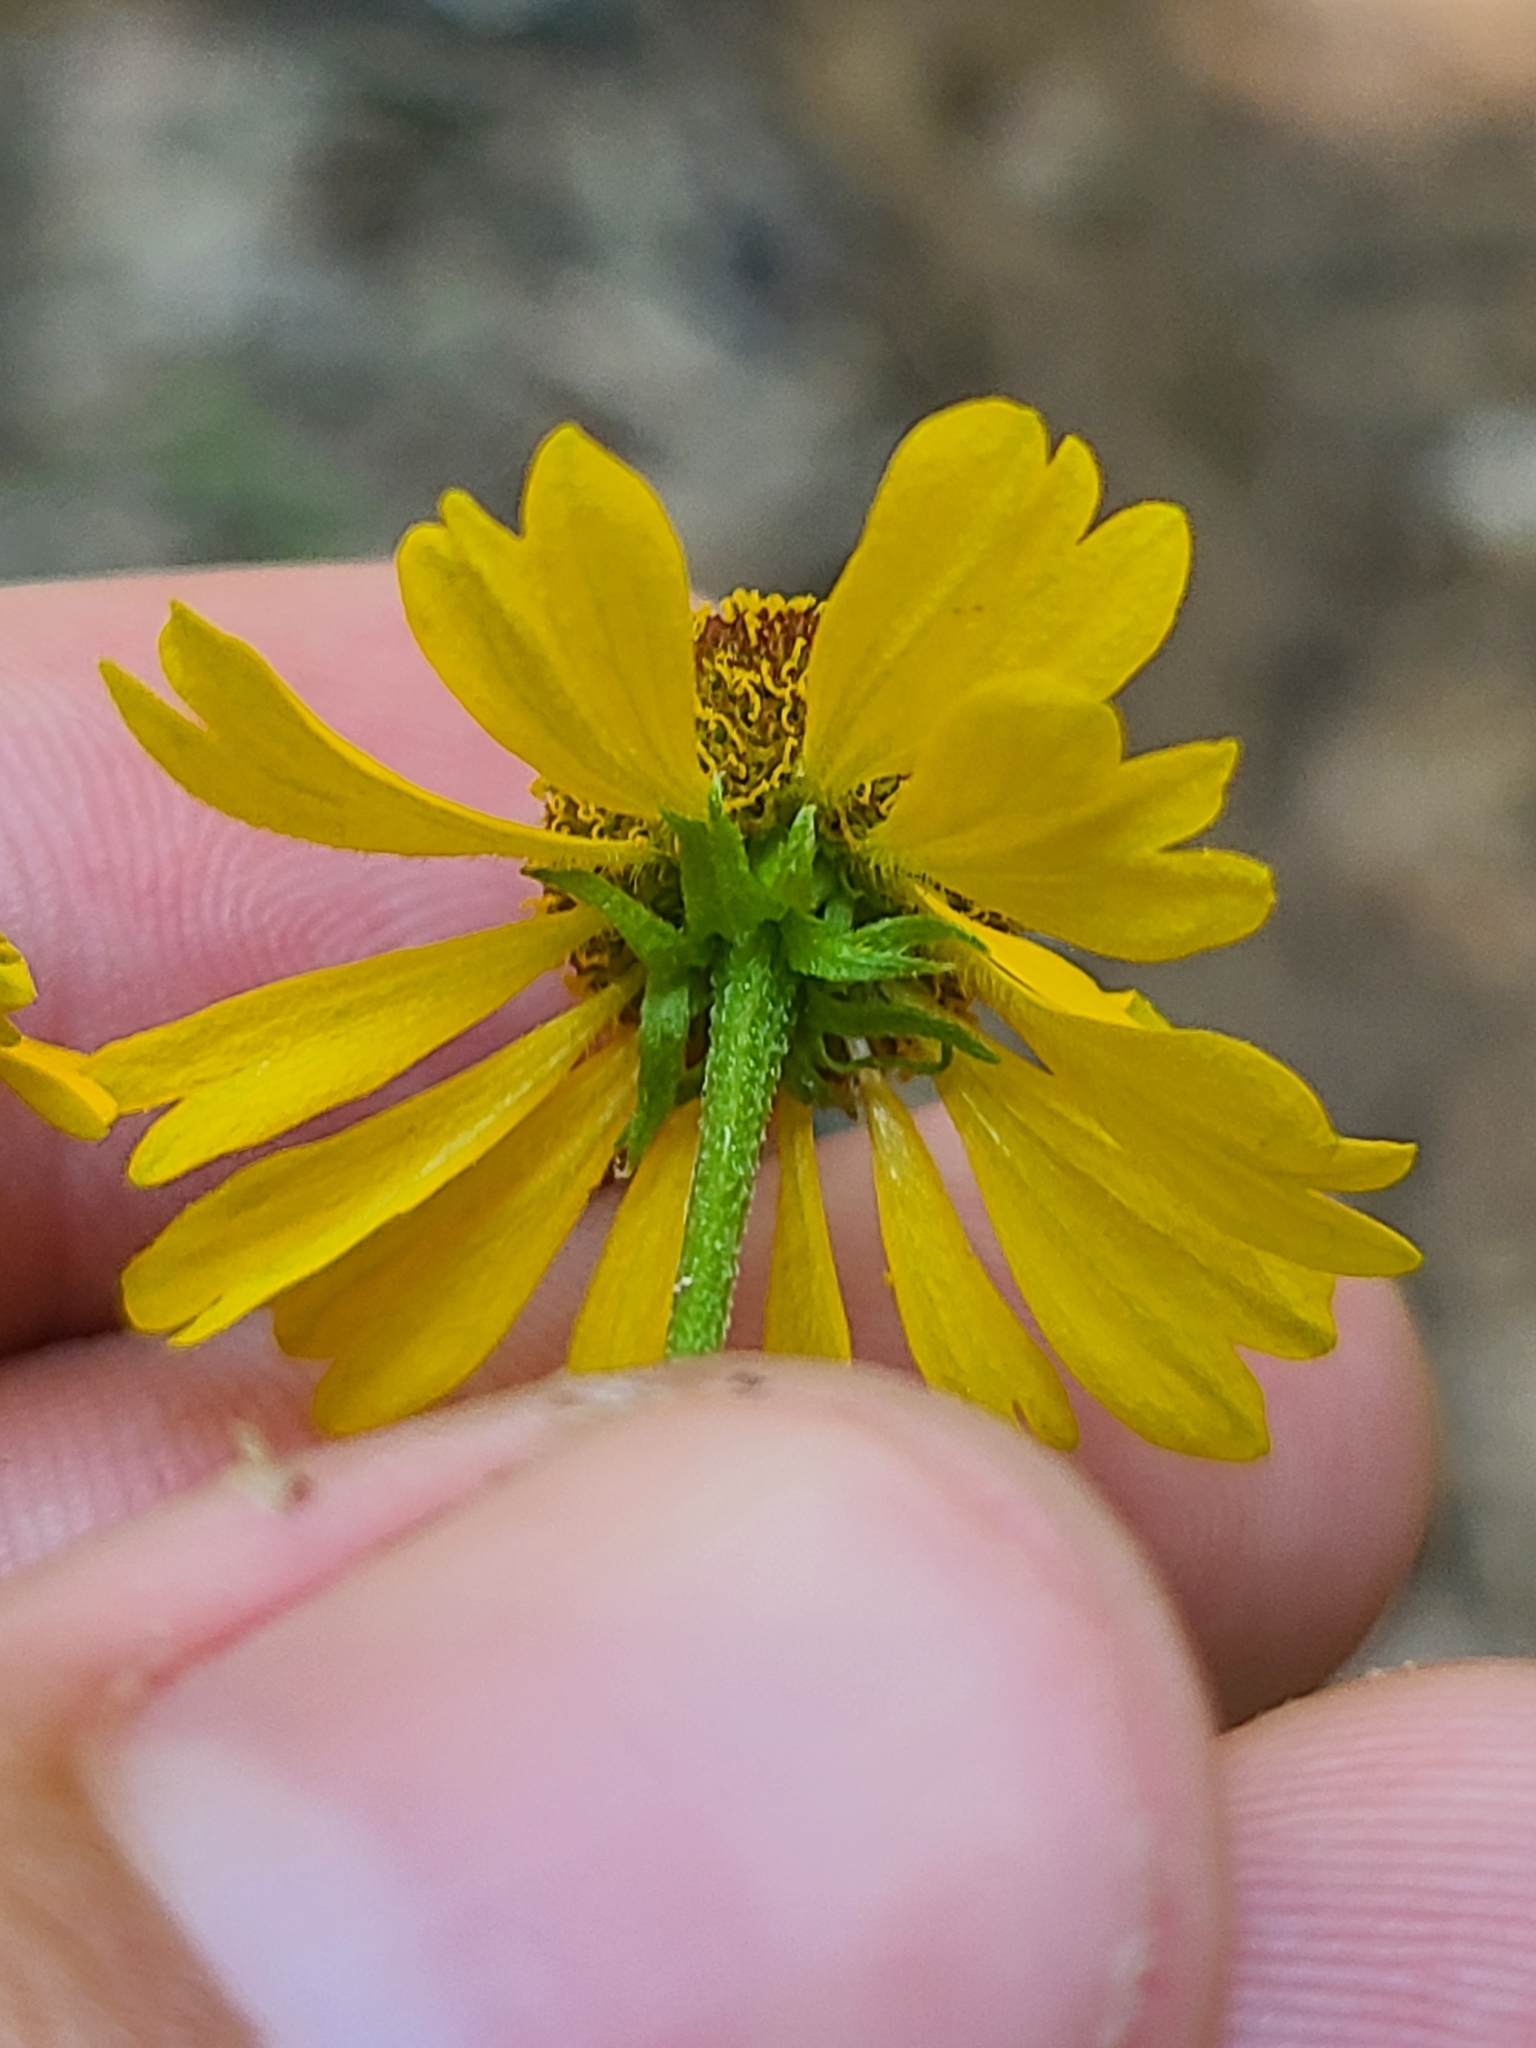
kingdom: Plantae
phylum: Tracheophyta
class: Magnoliopsida
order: Asterales
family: Asteraceae
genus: Helenium
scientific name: Helenium flexuosum
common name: Naked-flowered sneezeweed
